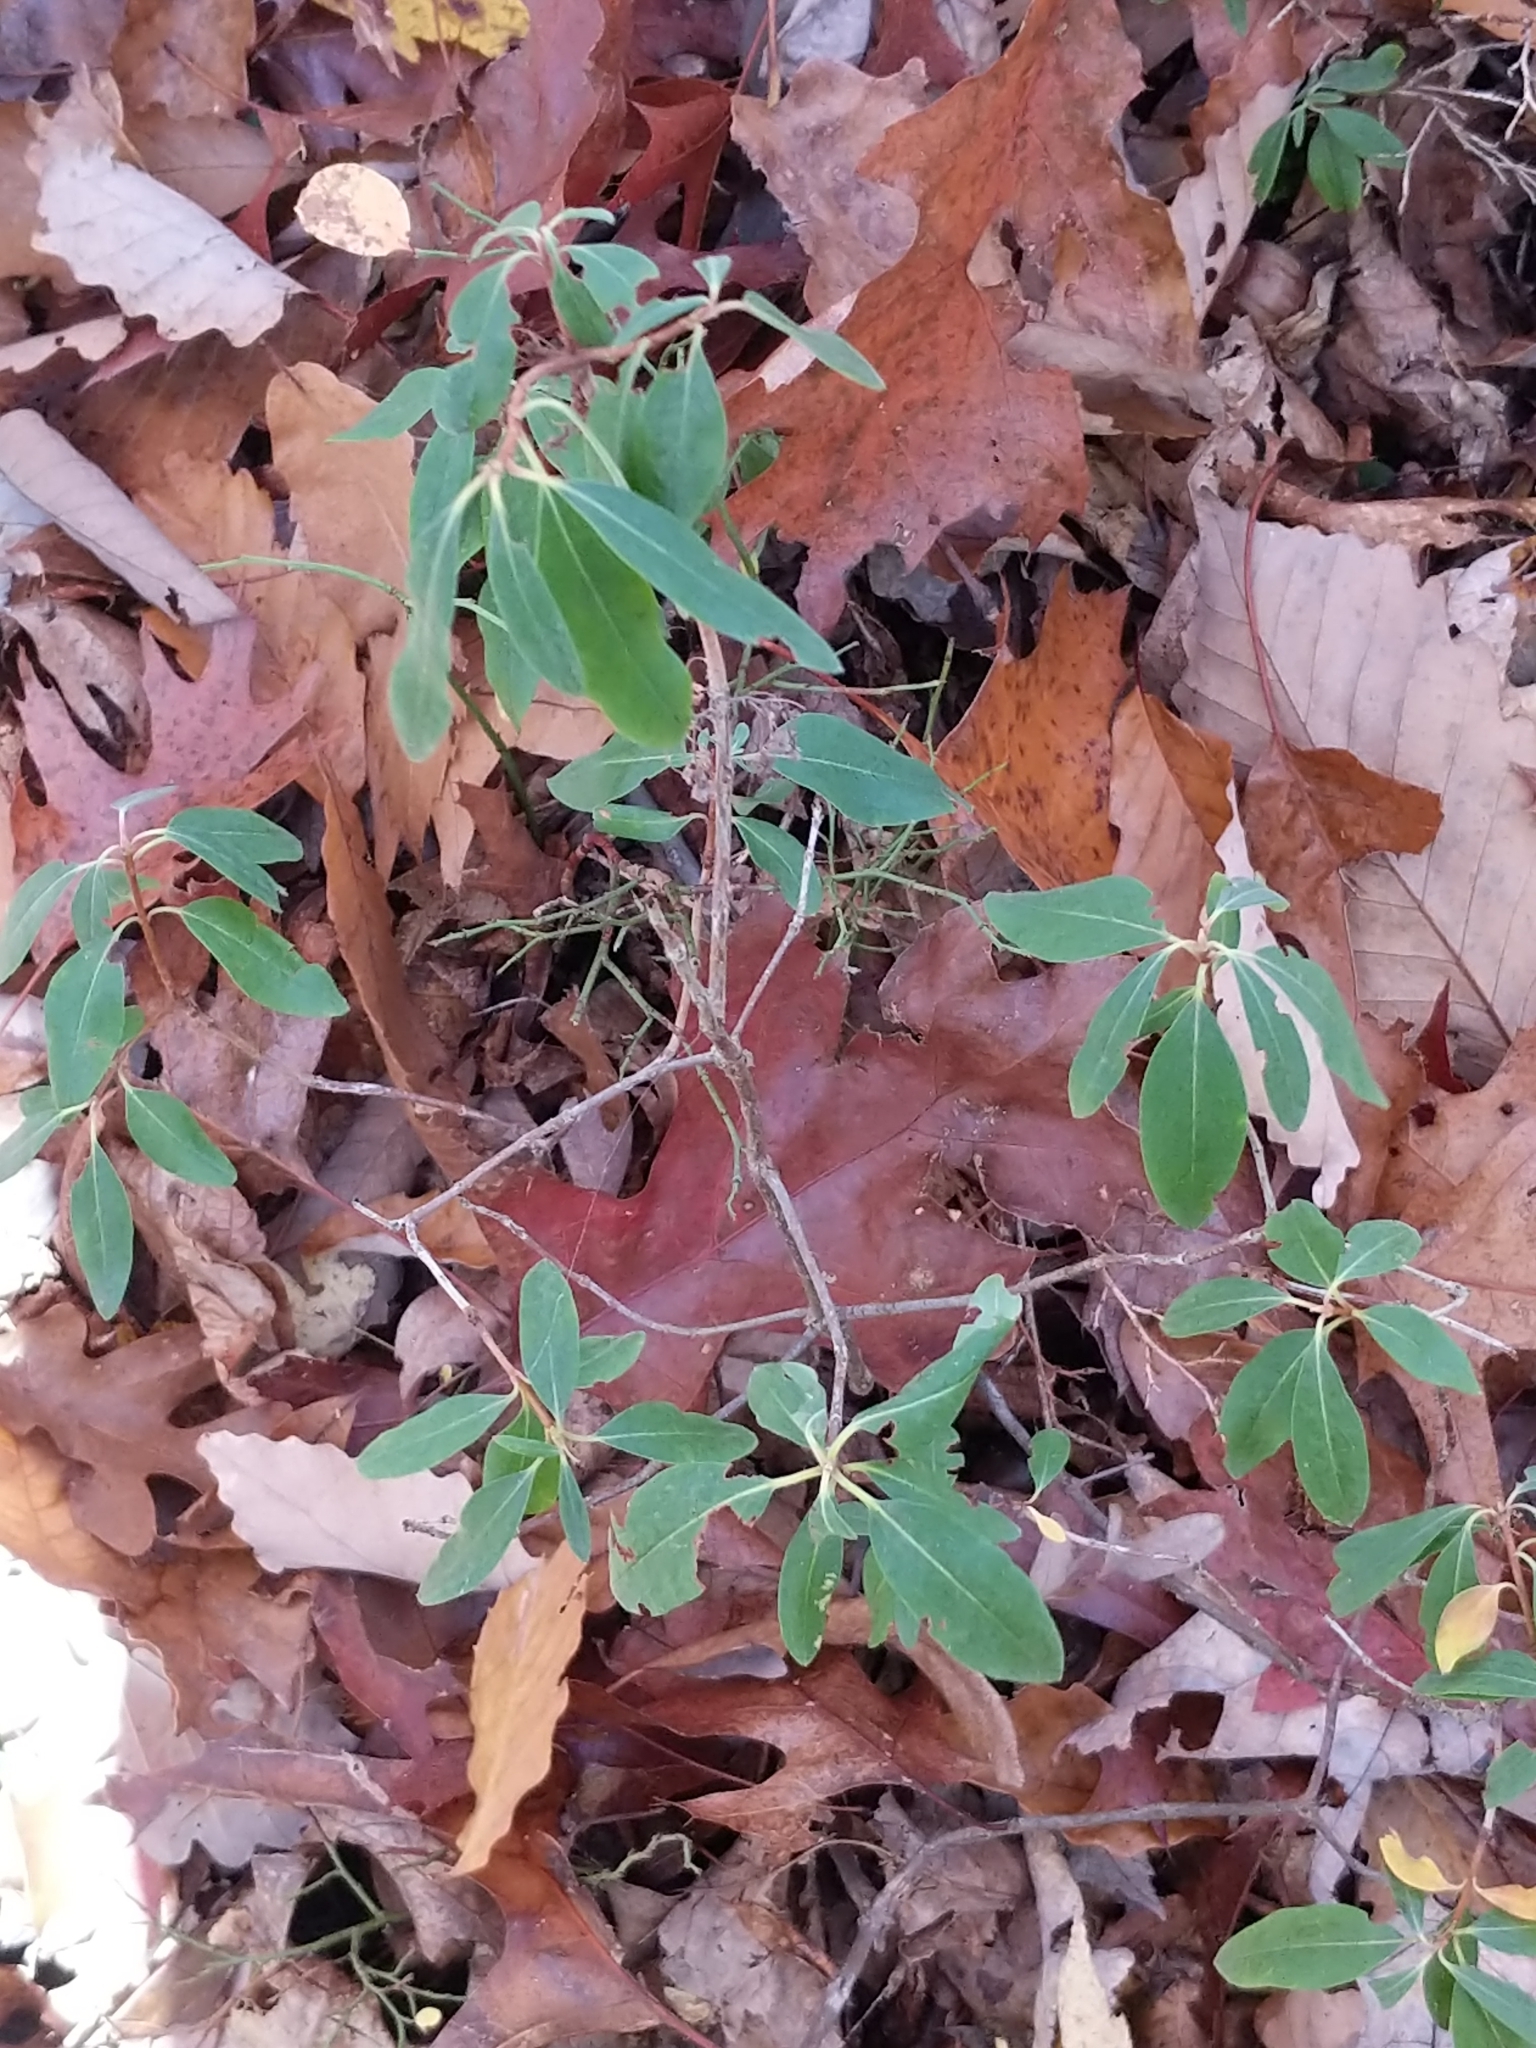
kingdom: Plantae
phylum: Tracheophyta
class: Magnoliopsida
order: Ericales
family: Ericaceae
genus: Kalmia
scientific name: Kalmia angustifolia
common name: Sheep-laurel
